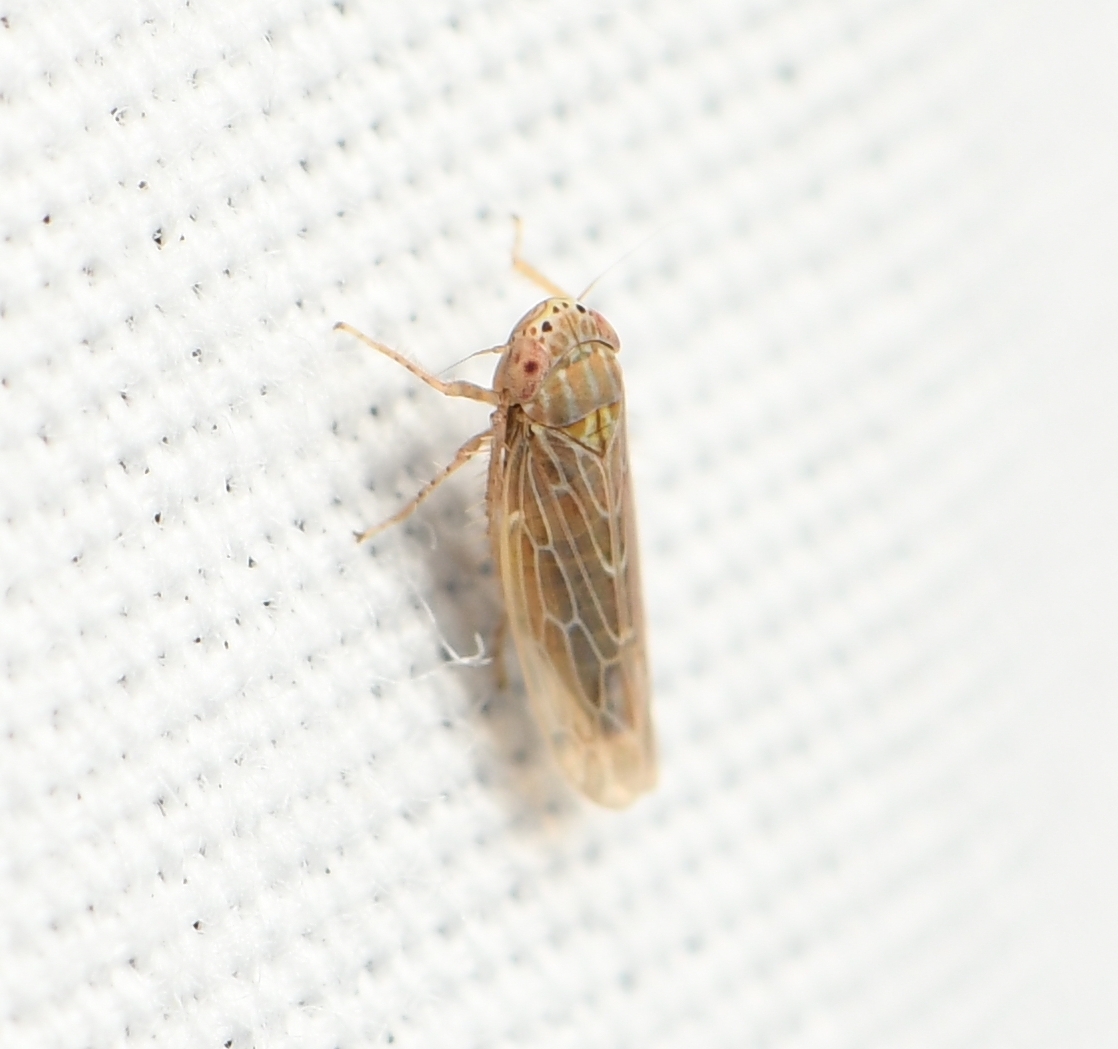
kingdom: Animalia
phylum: Arthropoda
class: Insecta
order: Hemiptera
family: Cicadellidae
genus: Graminella
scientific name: Graminella sonora
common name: Lesser lawn leafhopper
